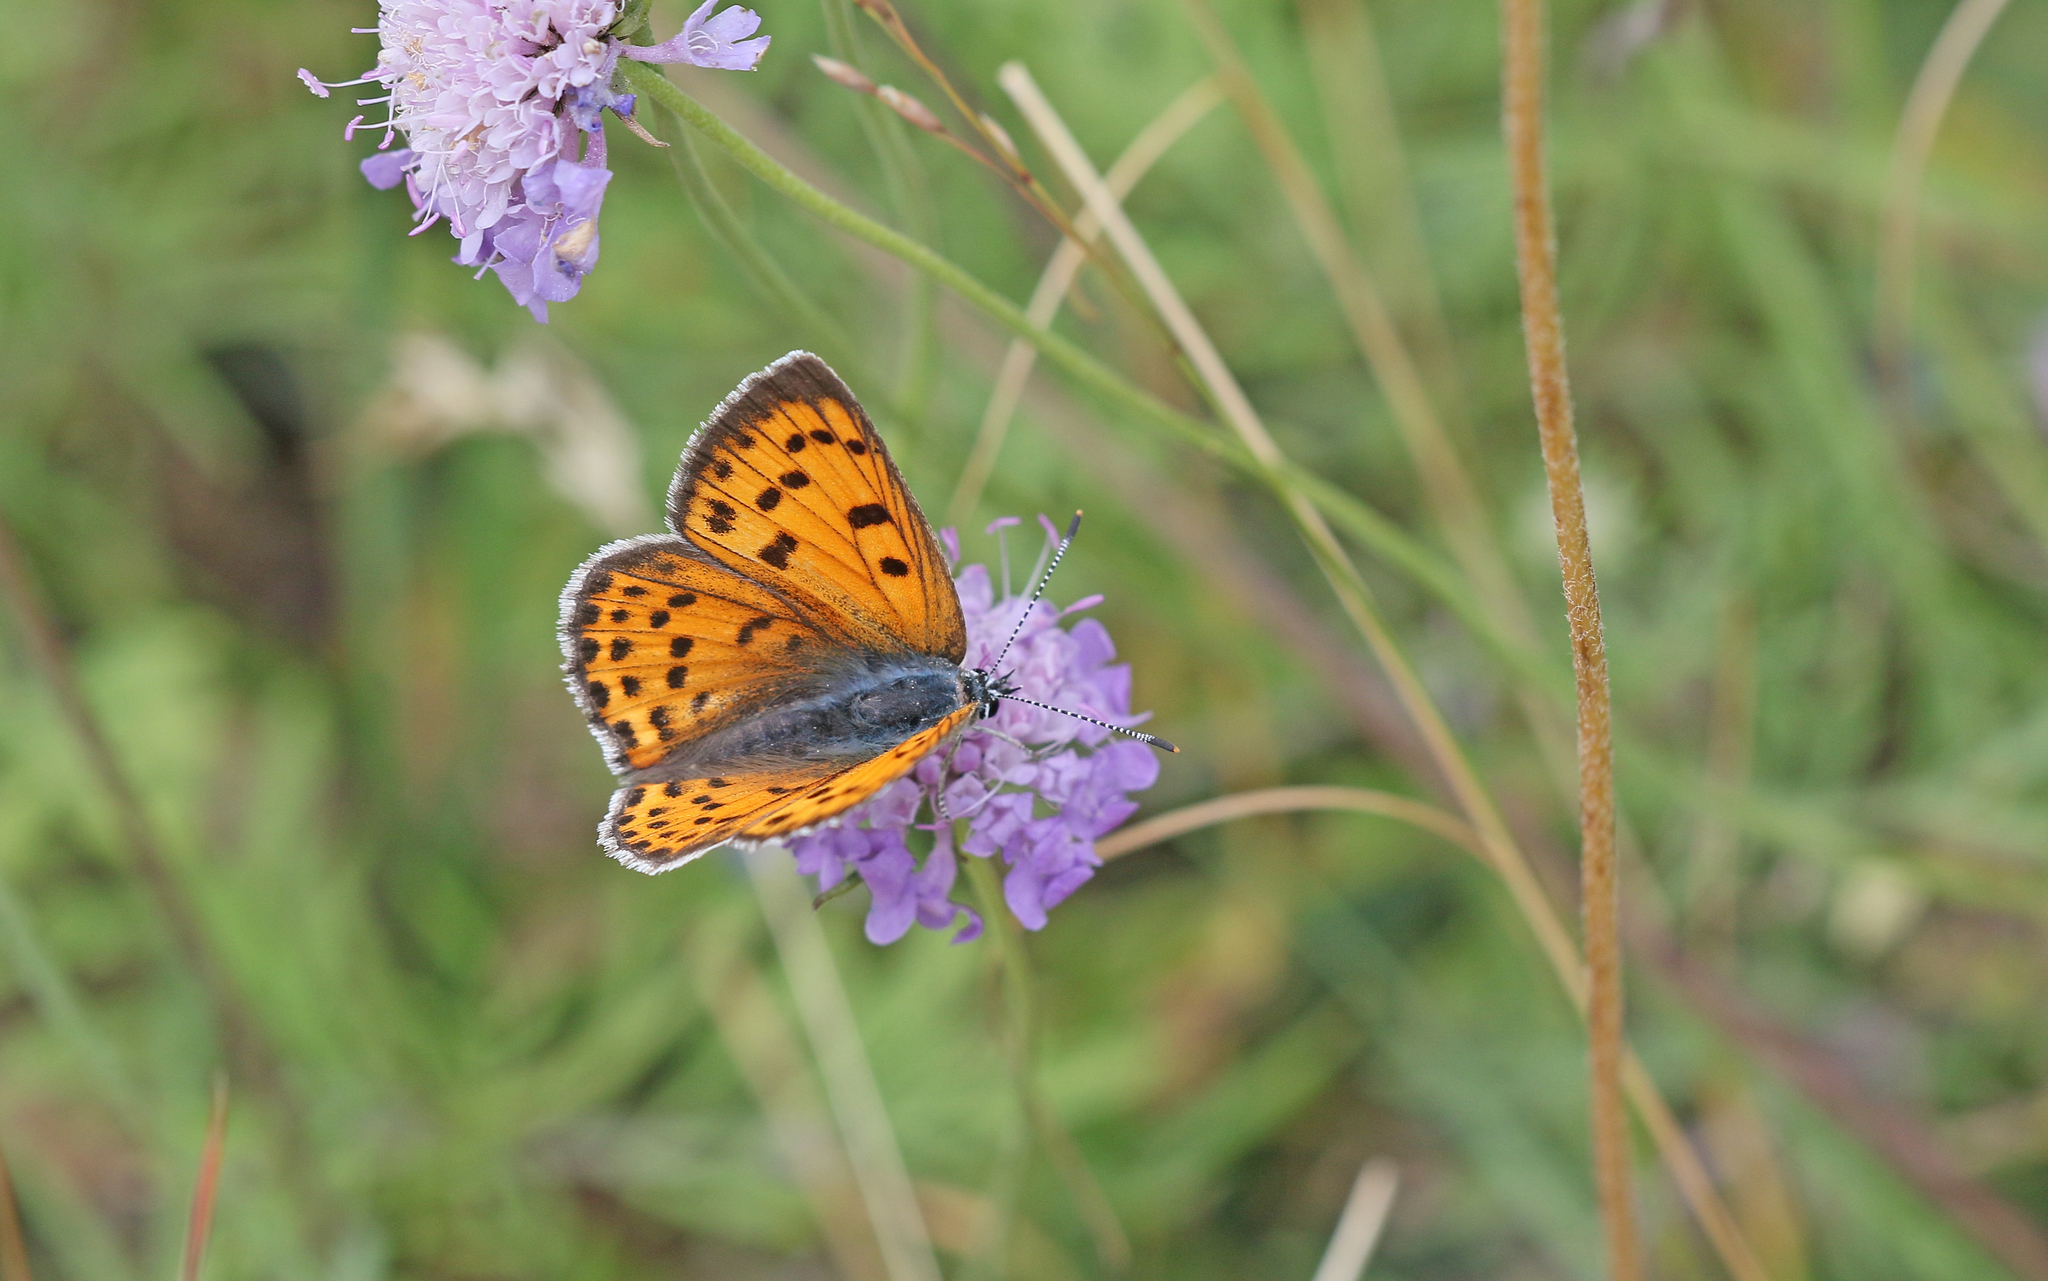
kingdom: Animalia
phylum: Arthropoda
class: Insecta
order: Lepidoptera
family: Lycaenidae
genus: Lycaena
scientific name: Lycaena alciphron
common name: Purple-shot copper
